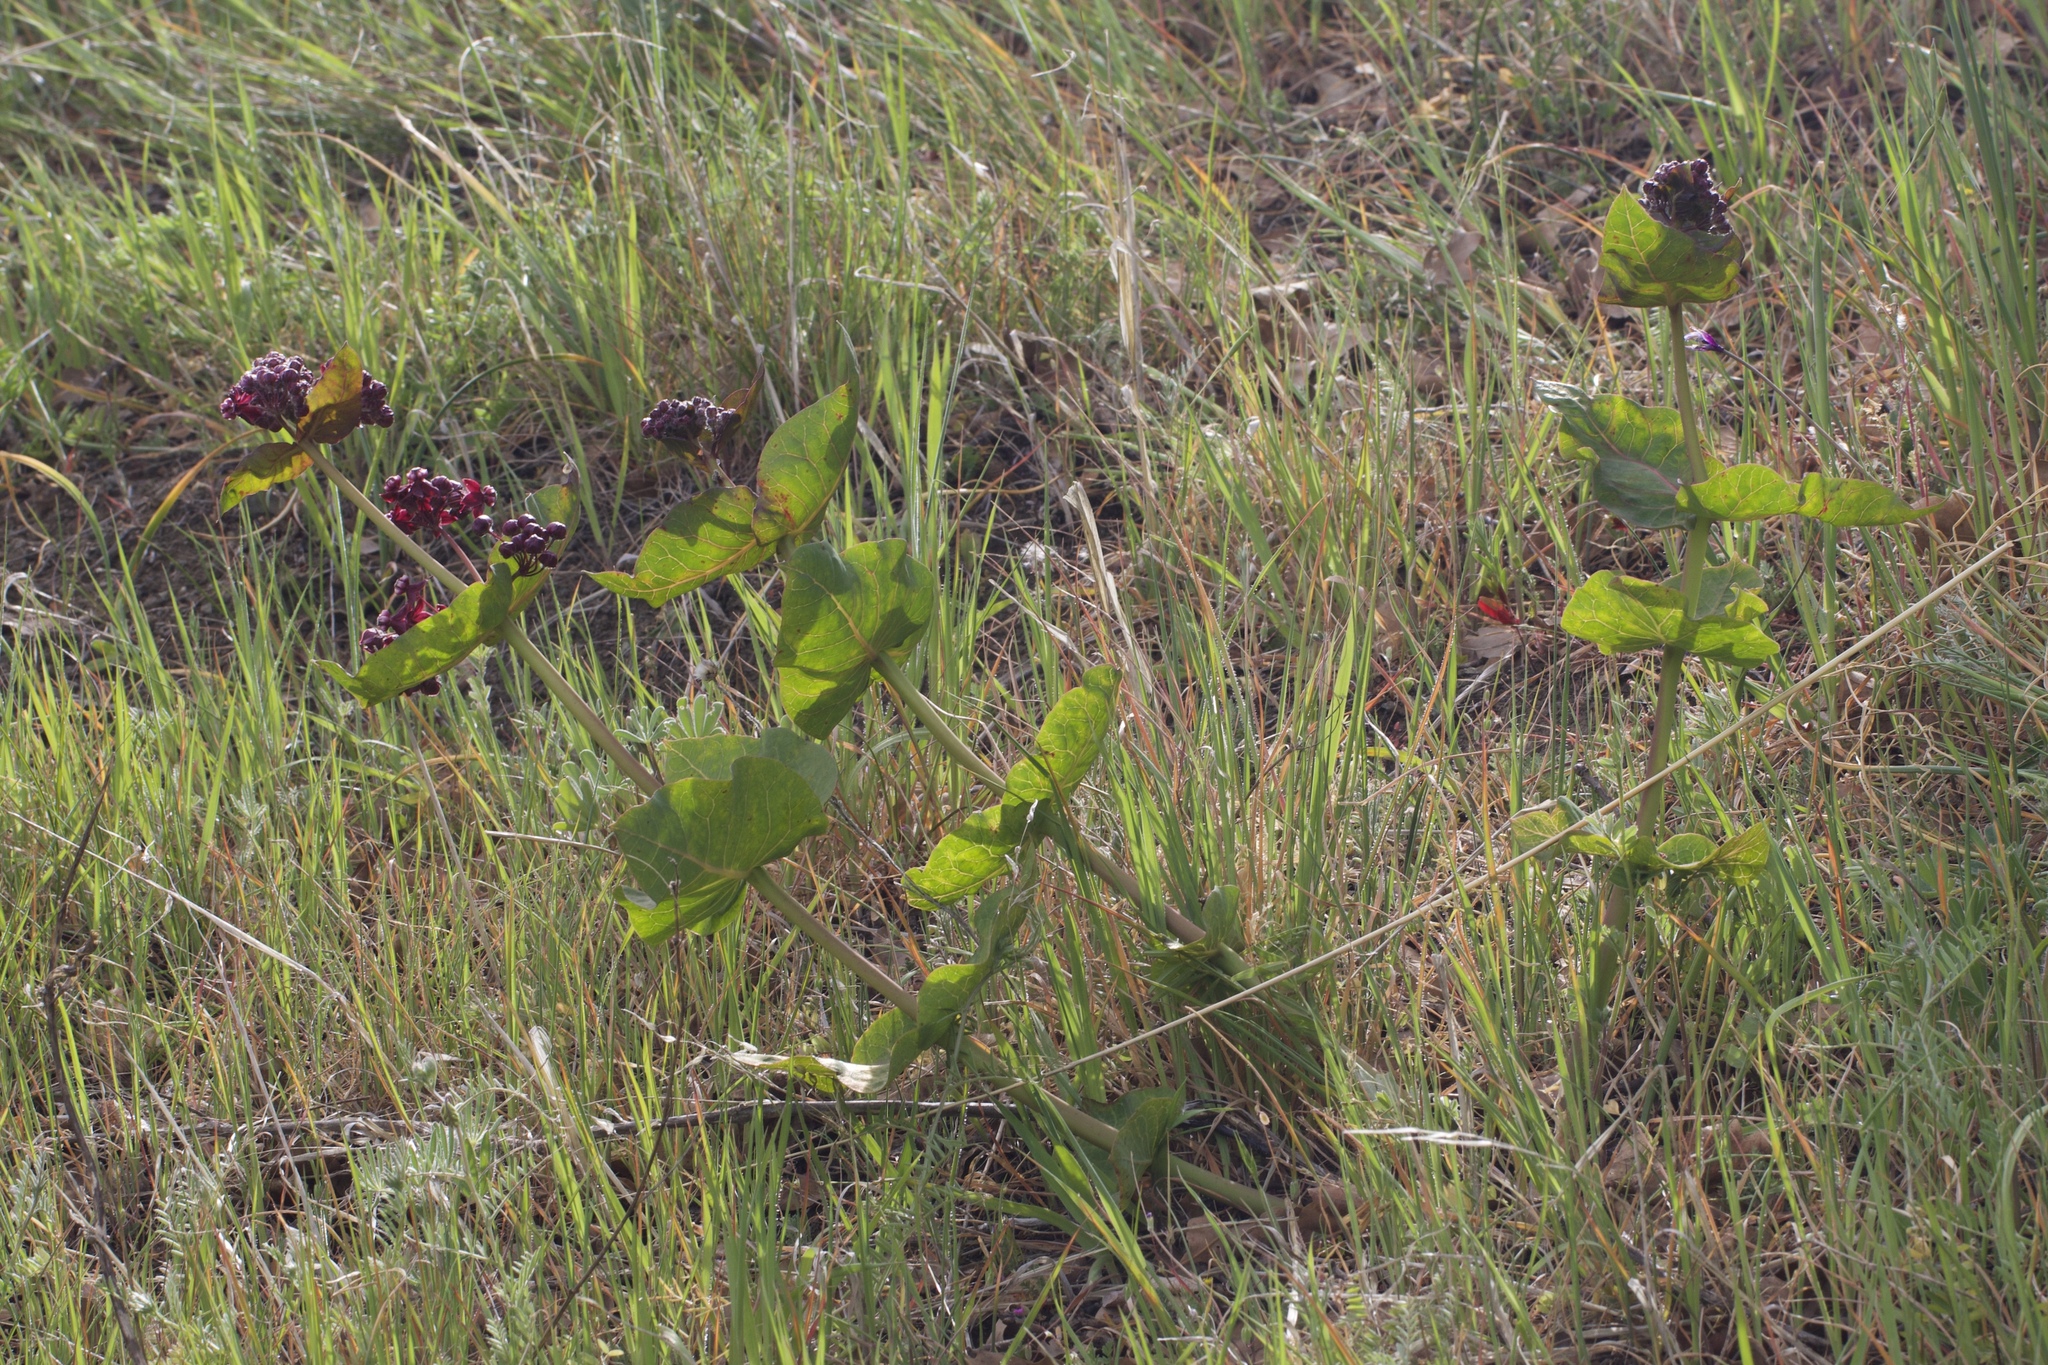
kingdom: Plantae
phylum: Tracheophyta
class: Magnoliopsida
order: Gentianales
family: Apocynaceae
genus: Asclepias
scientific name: Asclepias cordifolia
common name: Purple milkweed
